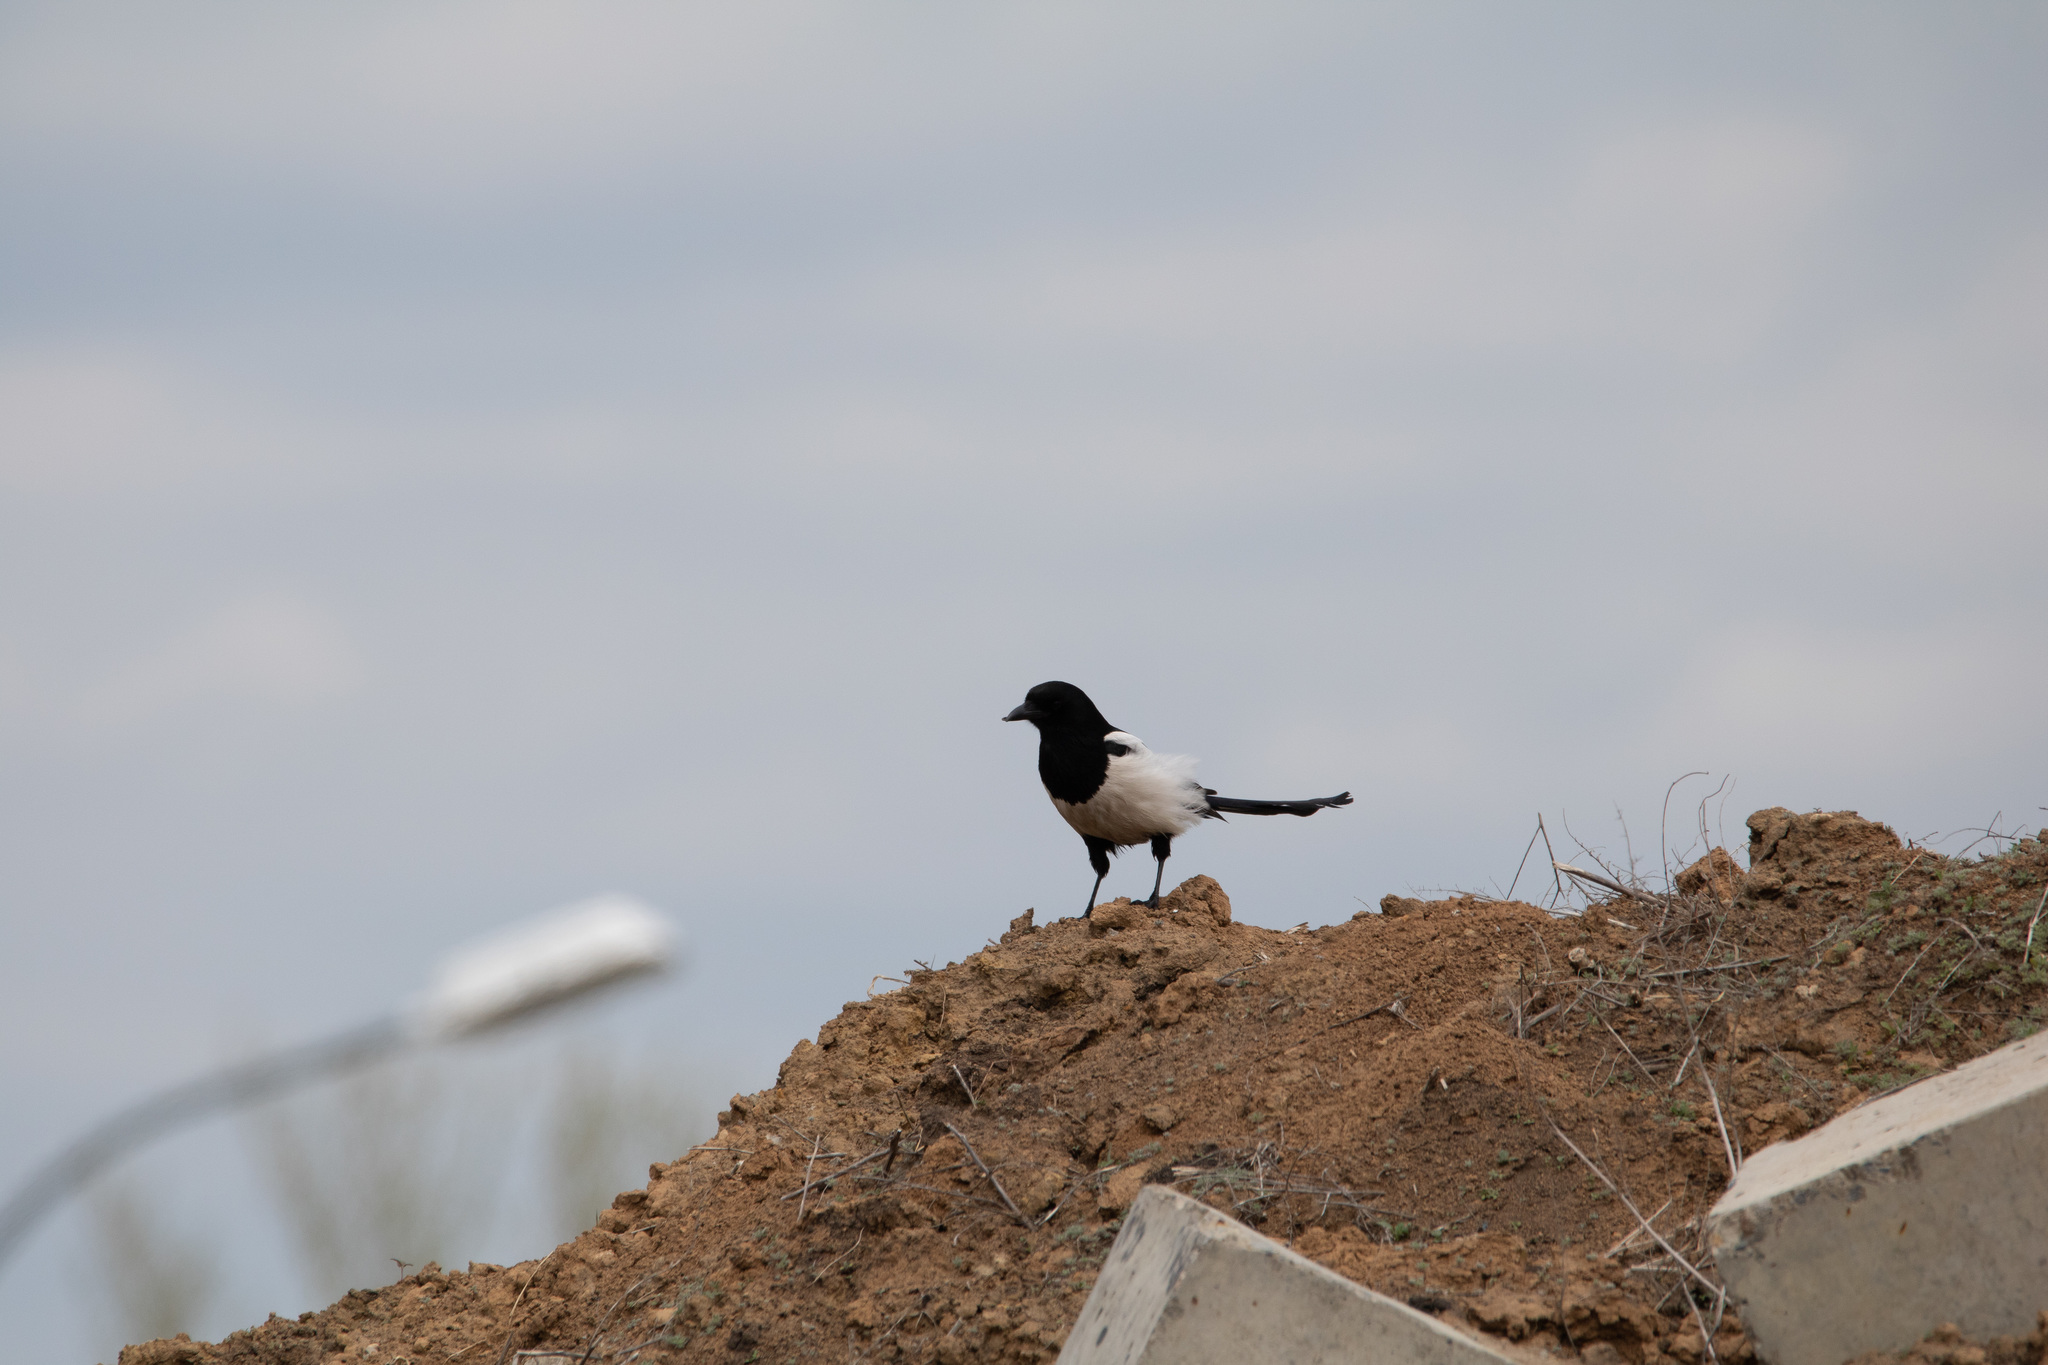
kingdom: Animalia
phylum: Chordata
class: Aves
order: Passeriformes
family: Corvidae
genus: Pica
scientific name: Pica pica
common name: Eurasian magpie
